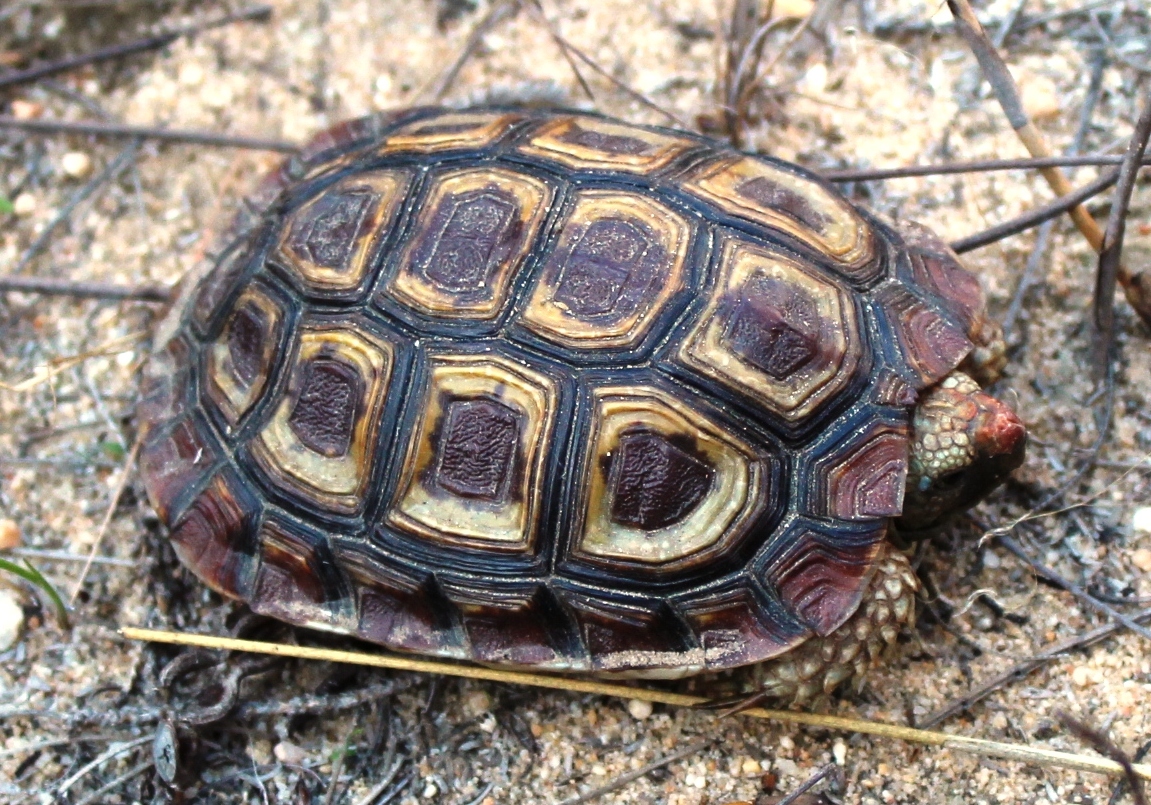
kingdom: Animalia
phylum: Chordata
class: Testudines
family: Testudinidae
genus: Homopus
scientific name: Homopus areolatus
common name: Parrot-beaked tortoise
